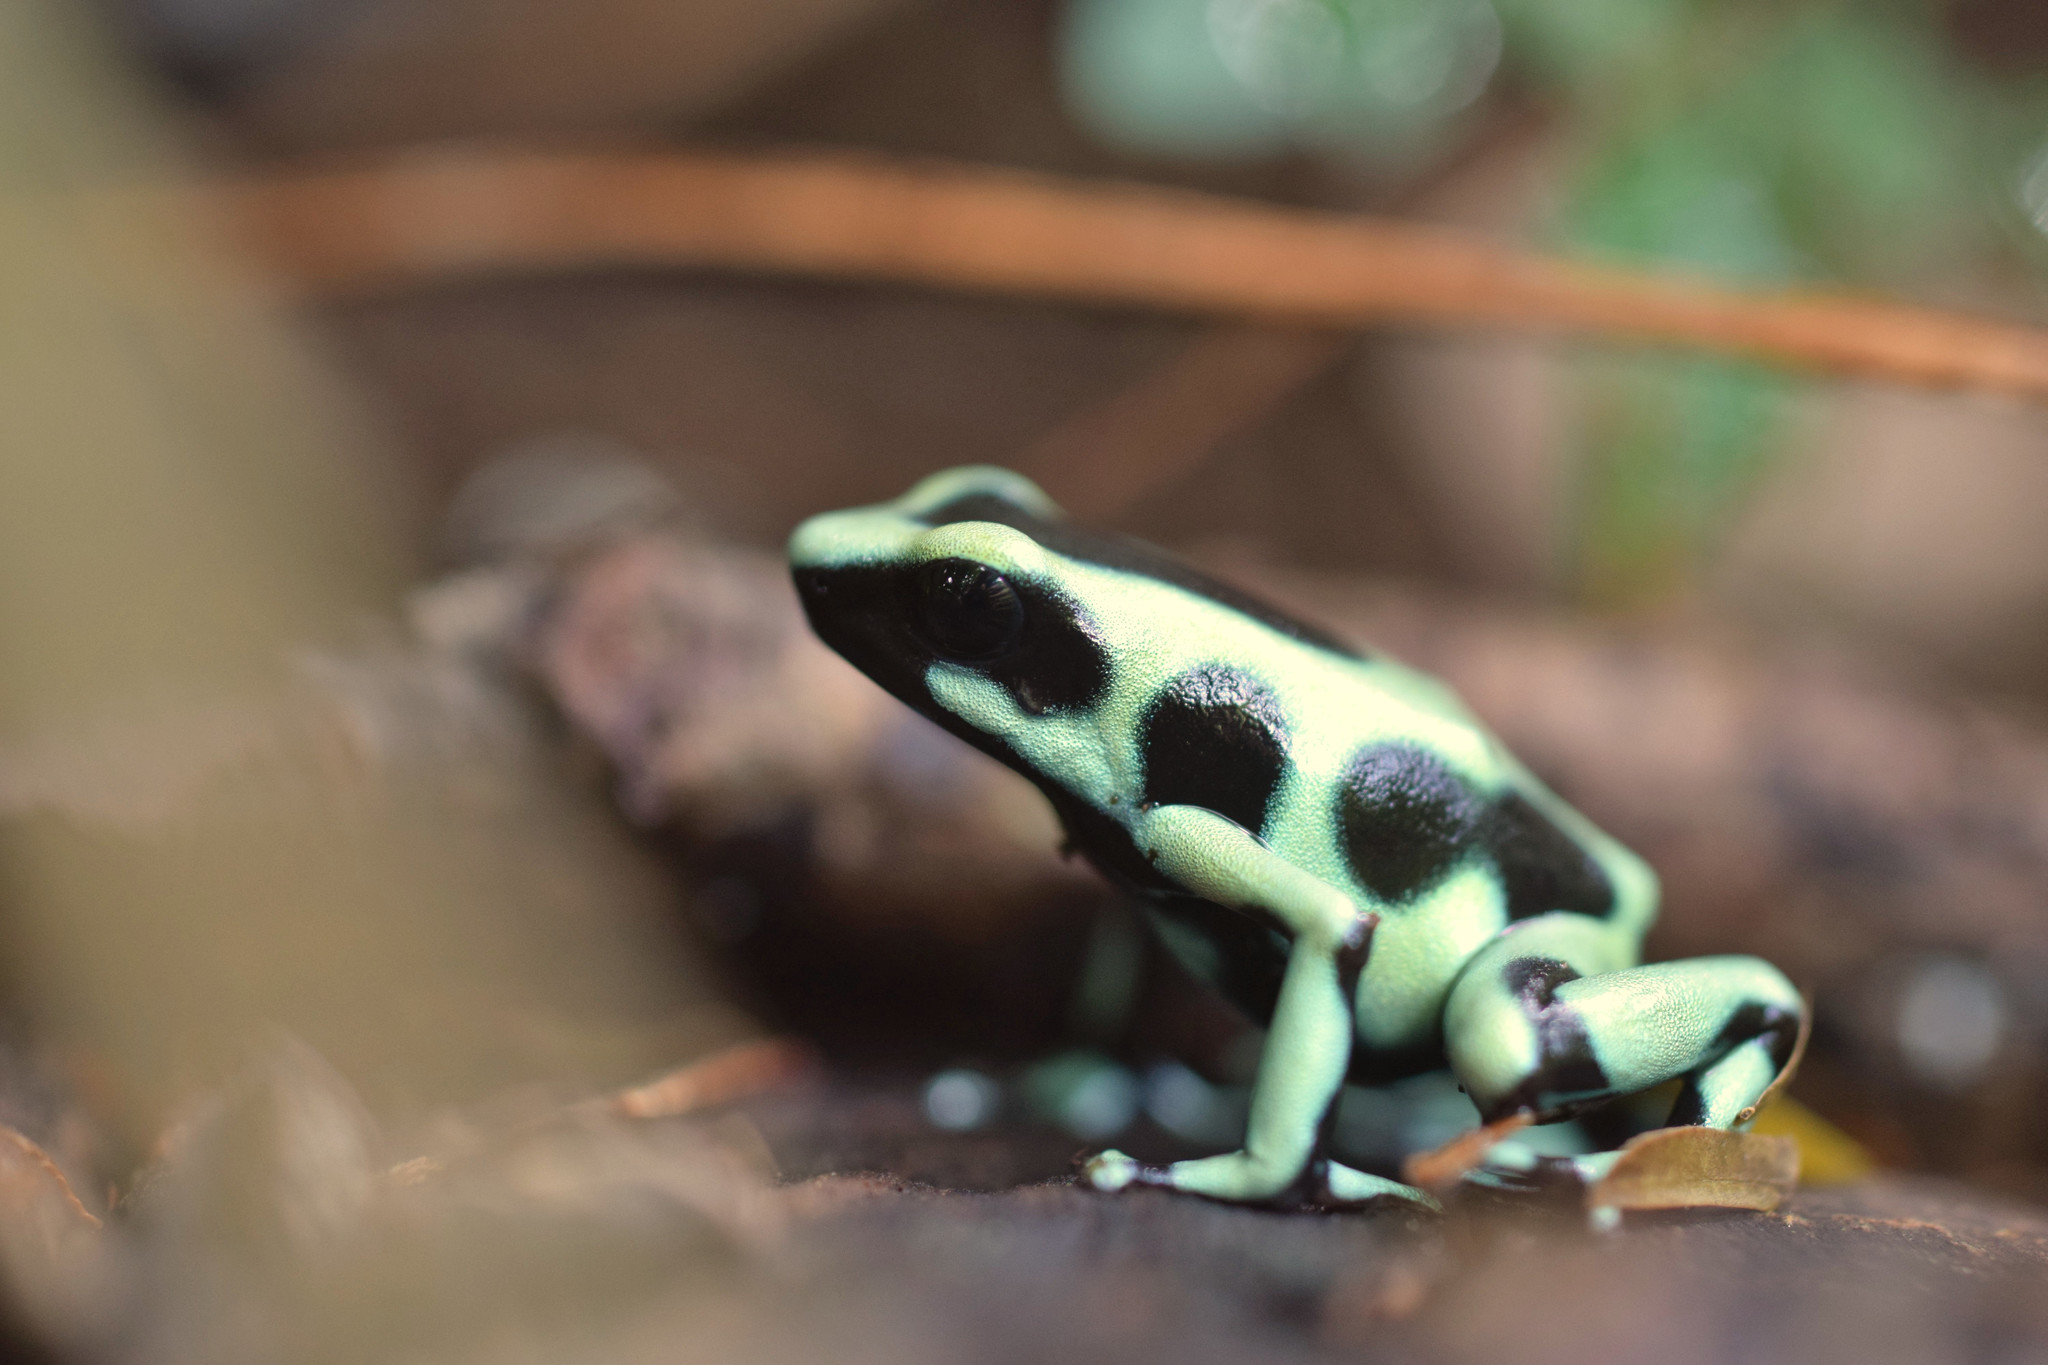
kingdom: Animalia
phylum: Chordata
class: Amphibia
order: Anura
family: Dendrobatidae
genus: Dendrobates
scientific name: Dendrobates auratus
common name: Green and black poison dart frog
